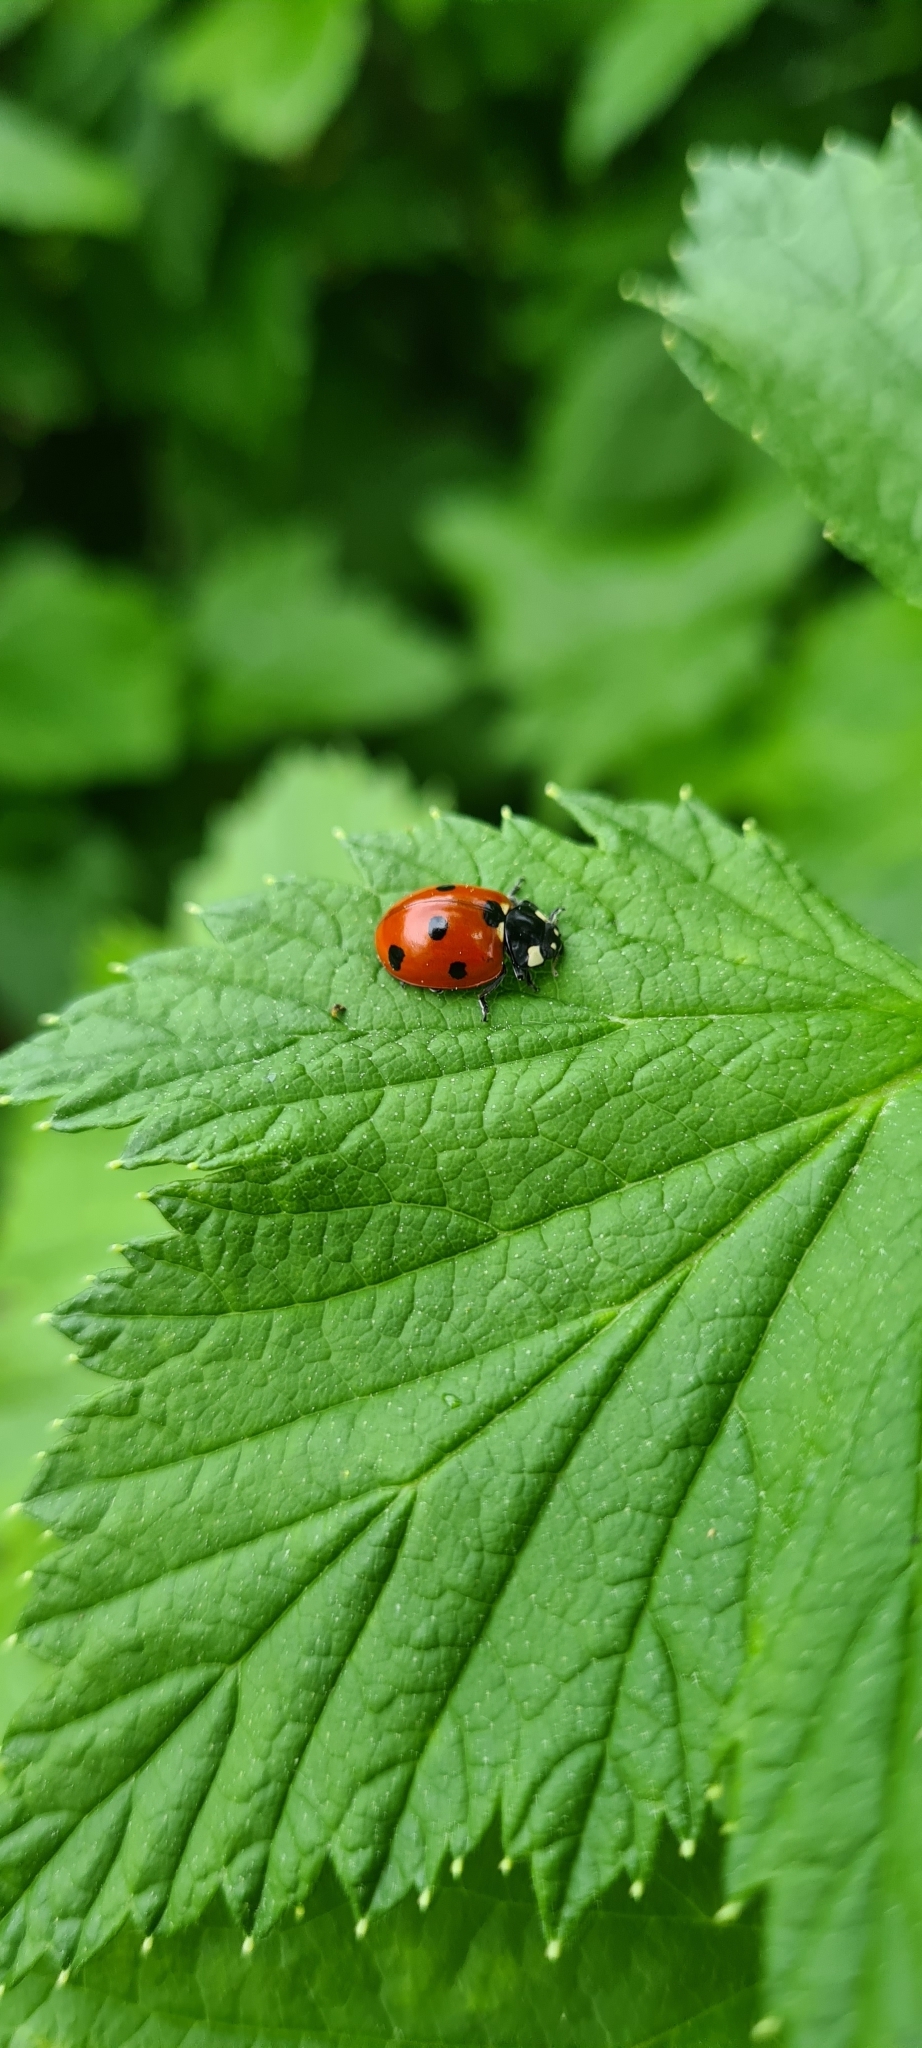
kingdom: Animalia
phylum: Arthropoda
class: Insecta
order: Coleoptera
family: Coccinellidae
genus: Coccinella
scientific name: Coccinella septempunctata
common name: Sevenspotted lady beetle
